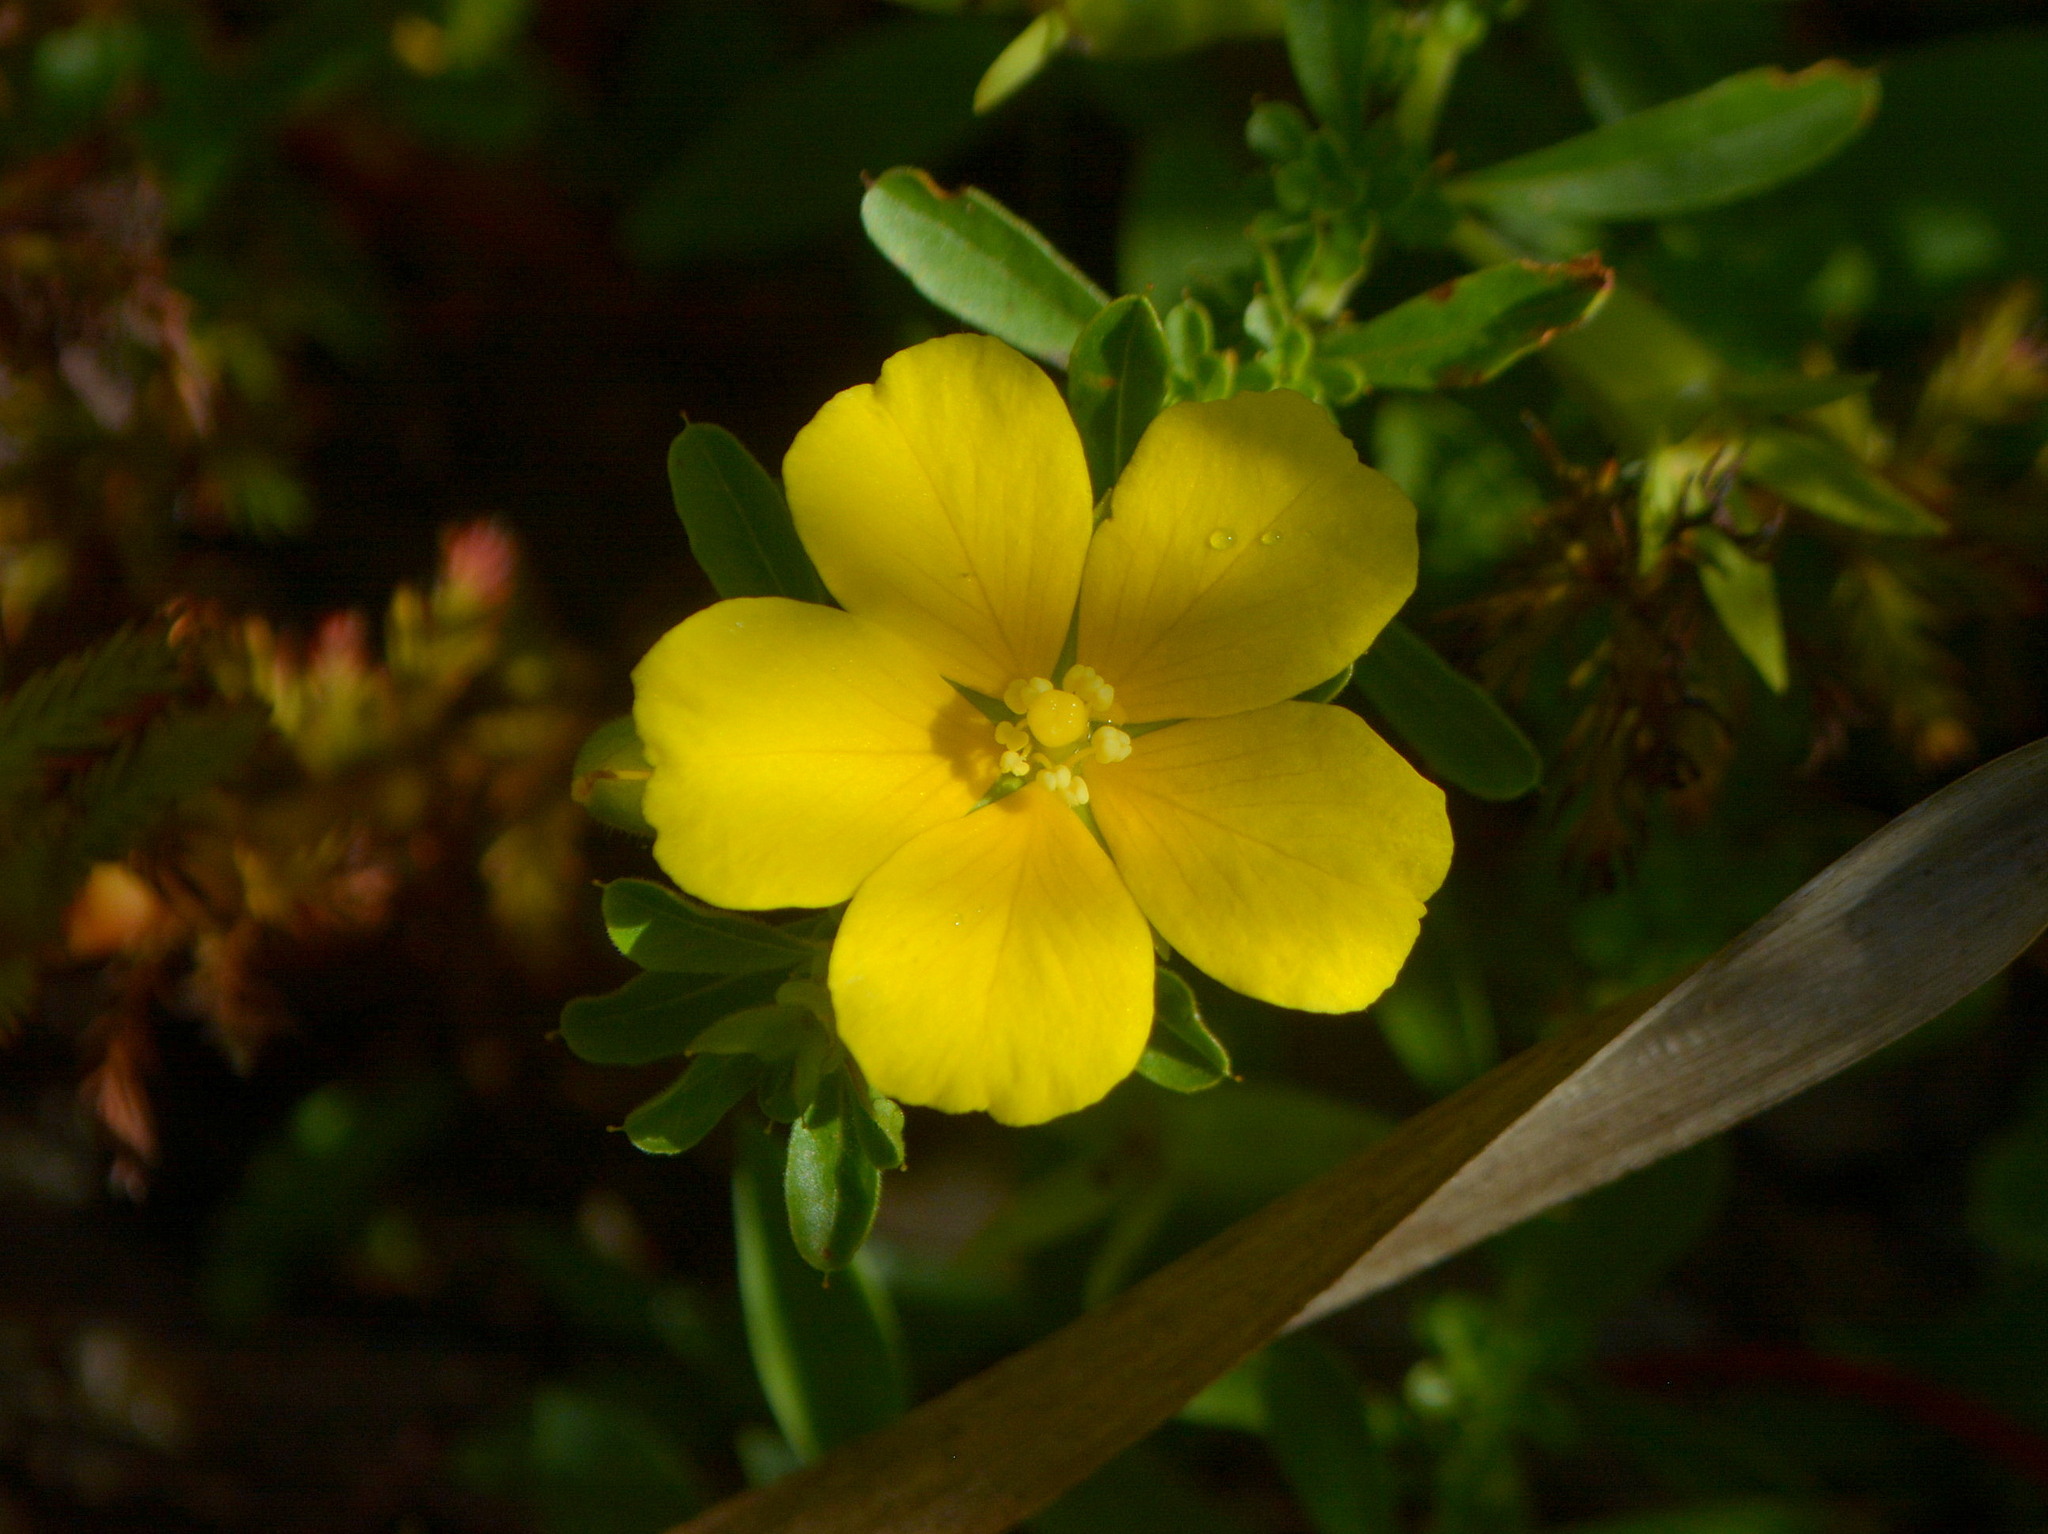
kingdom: Plantae
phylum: Tracheophyta
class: Magnoliopsida
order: Myrtales
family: Onagraceae
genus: Ludwigia
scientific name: Ludwigia hookeri
